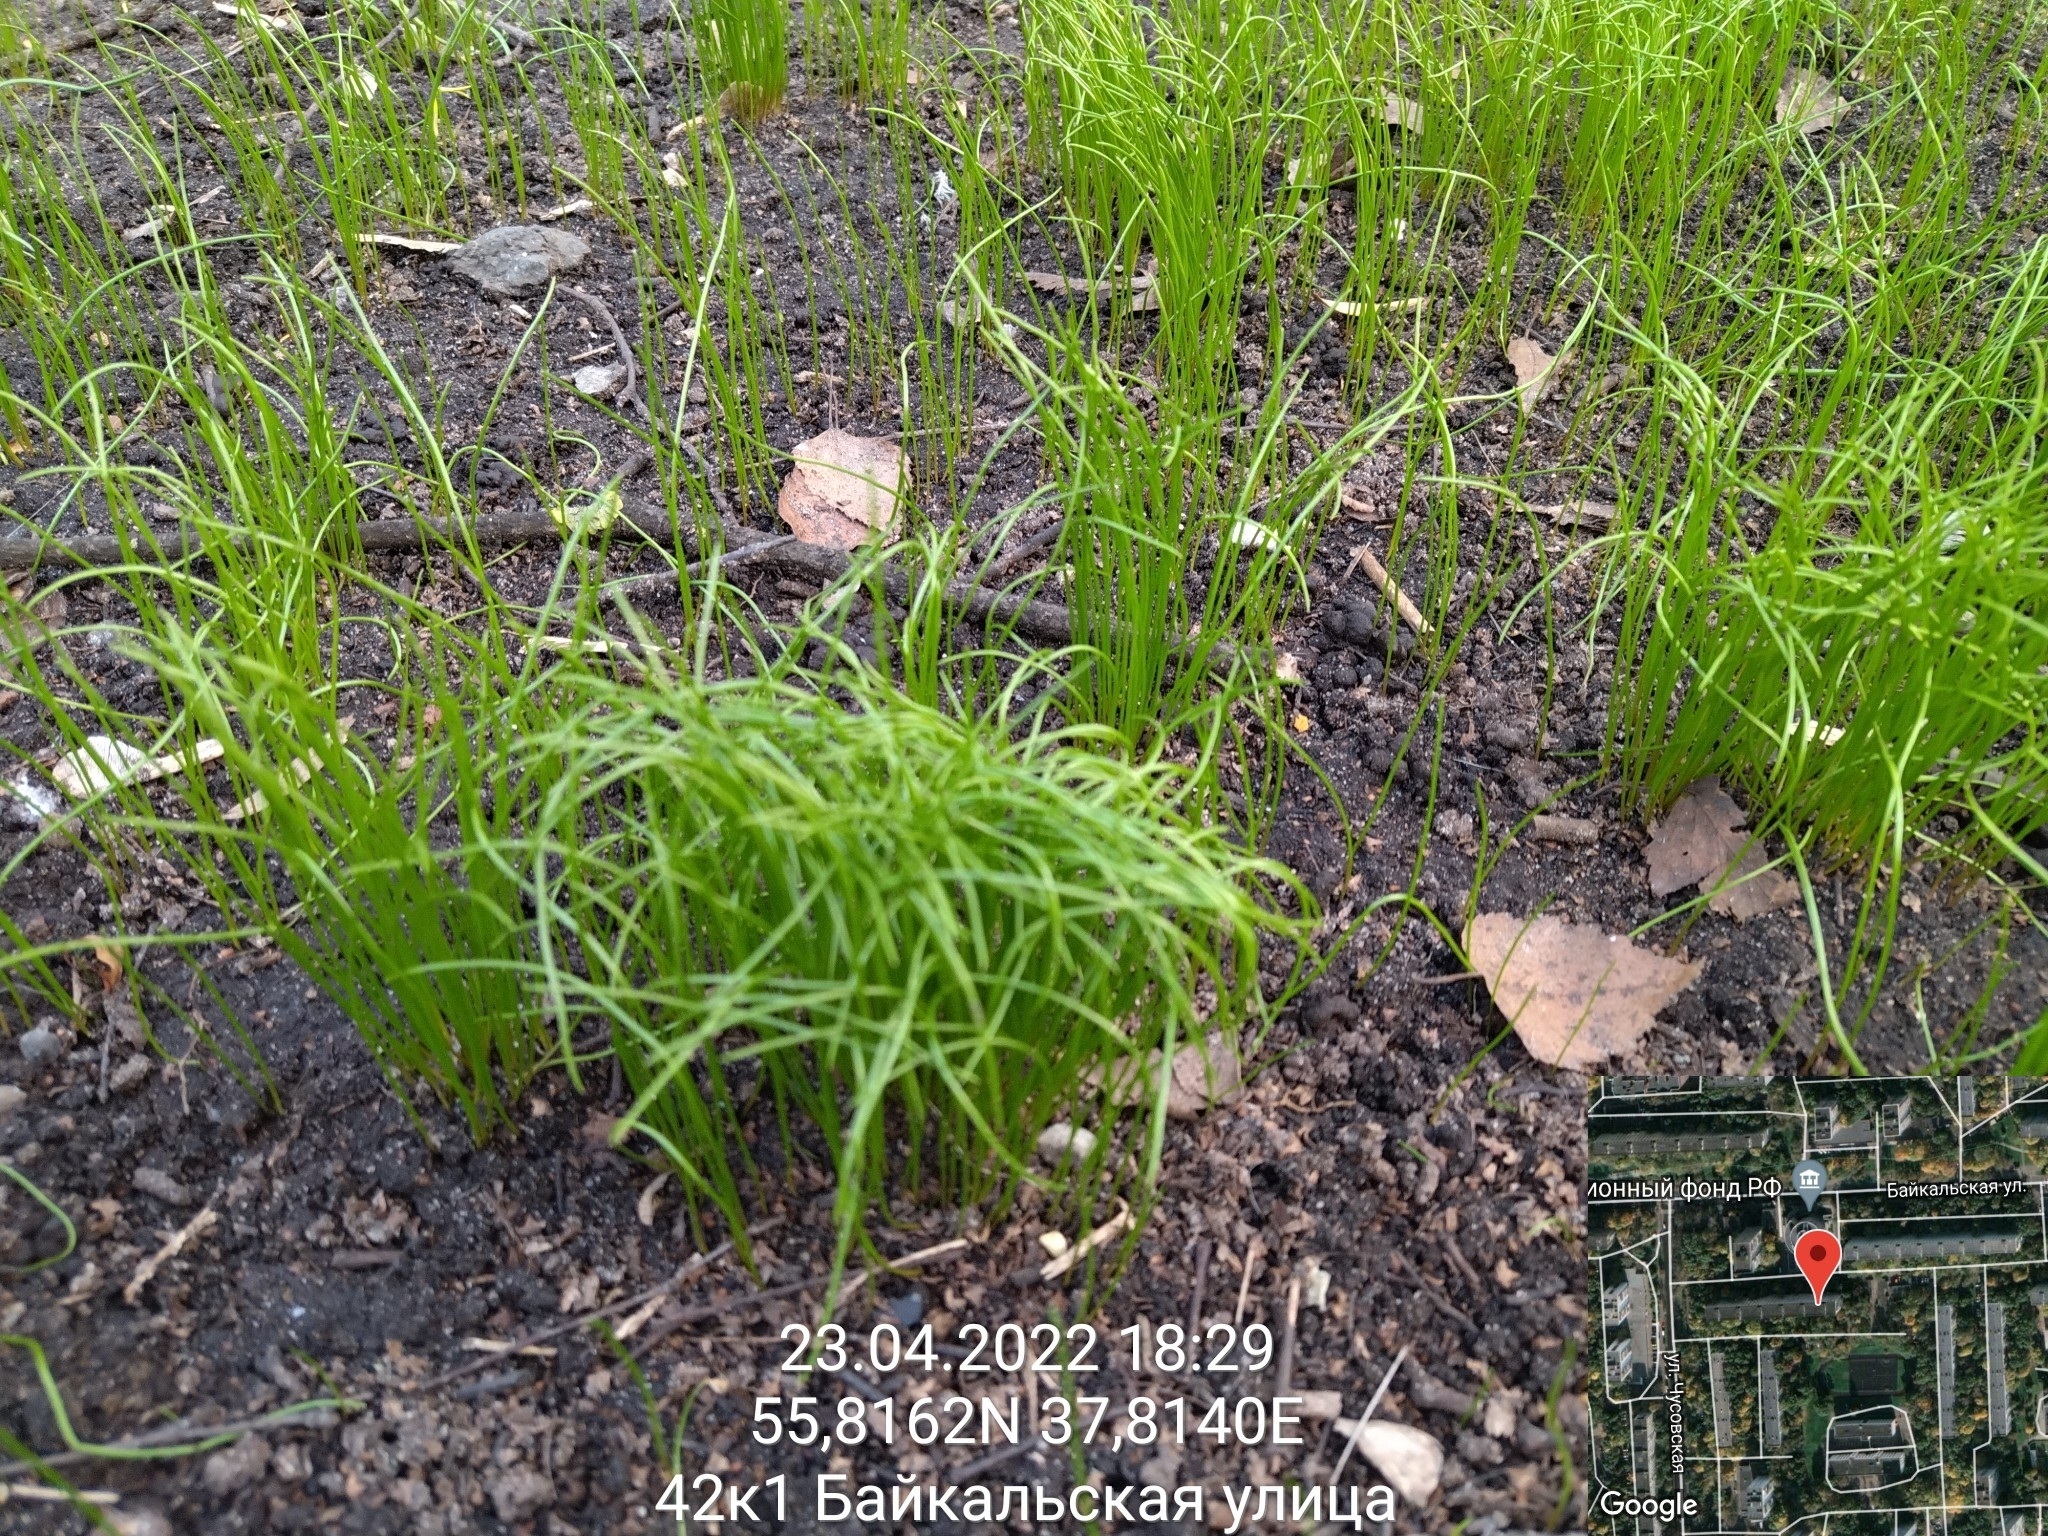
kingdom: Plantae
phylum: Tracheophyta
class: Liliopsida
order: Liliales
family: Liliaceae
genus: Gagea
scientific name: Gagea minima
